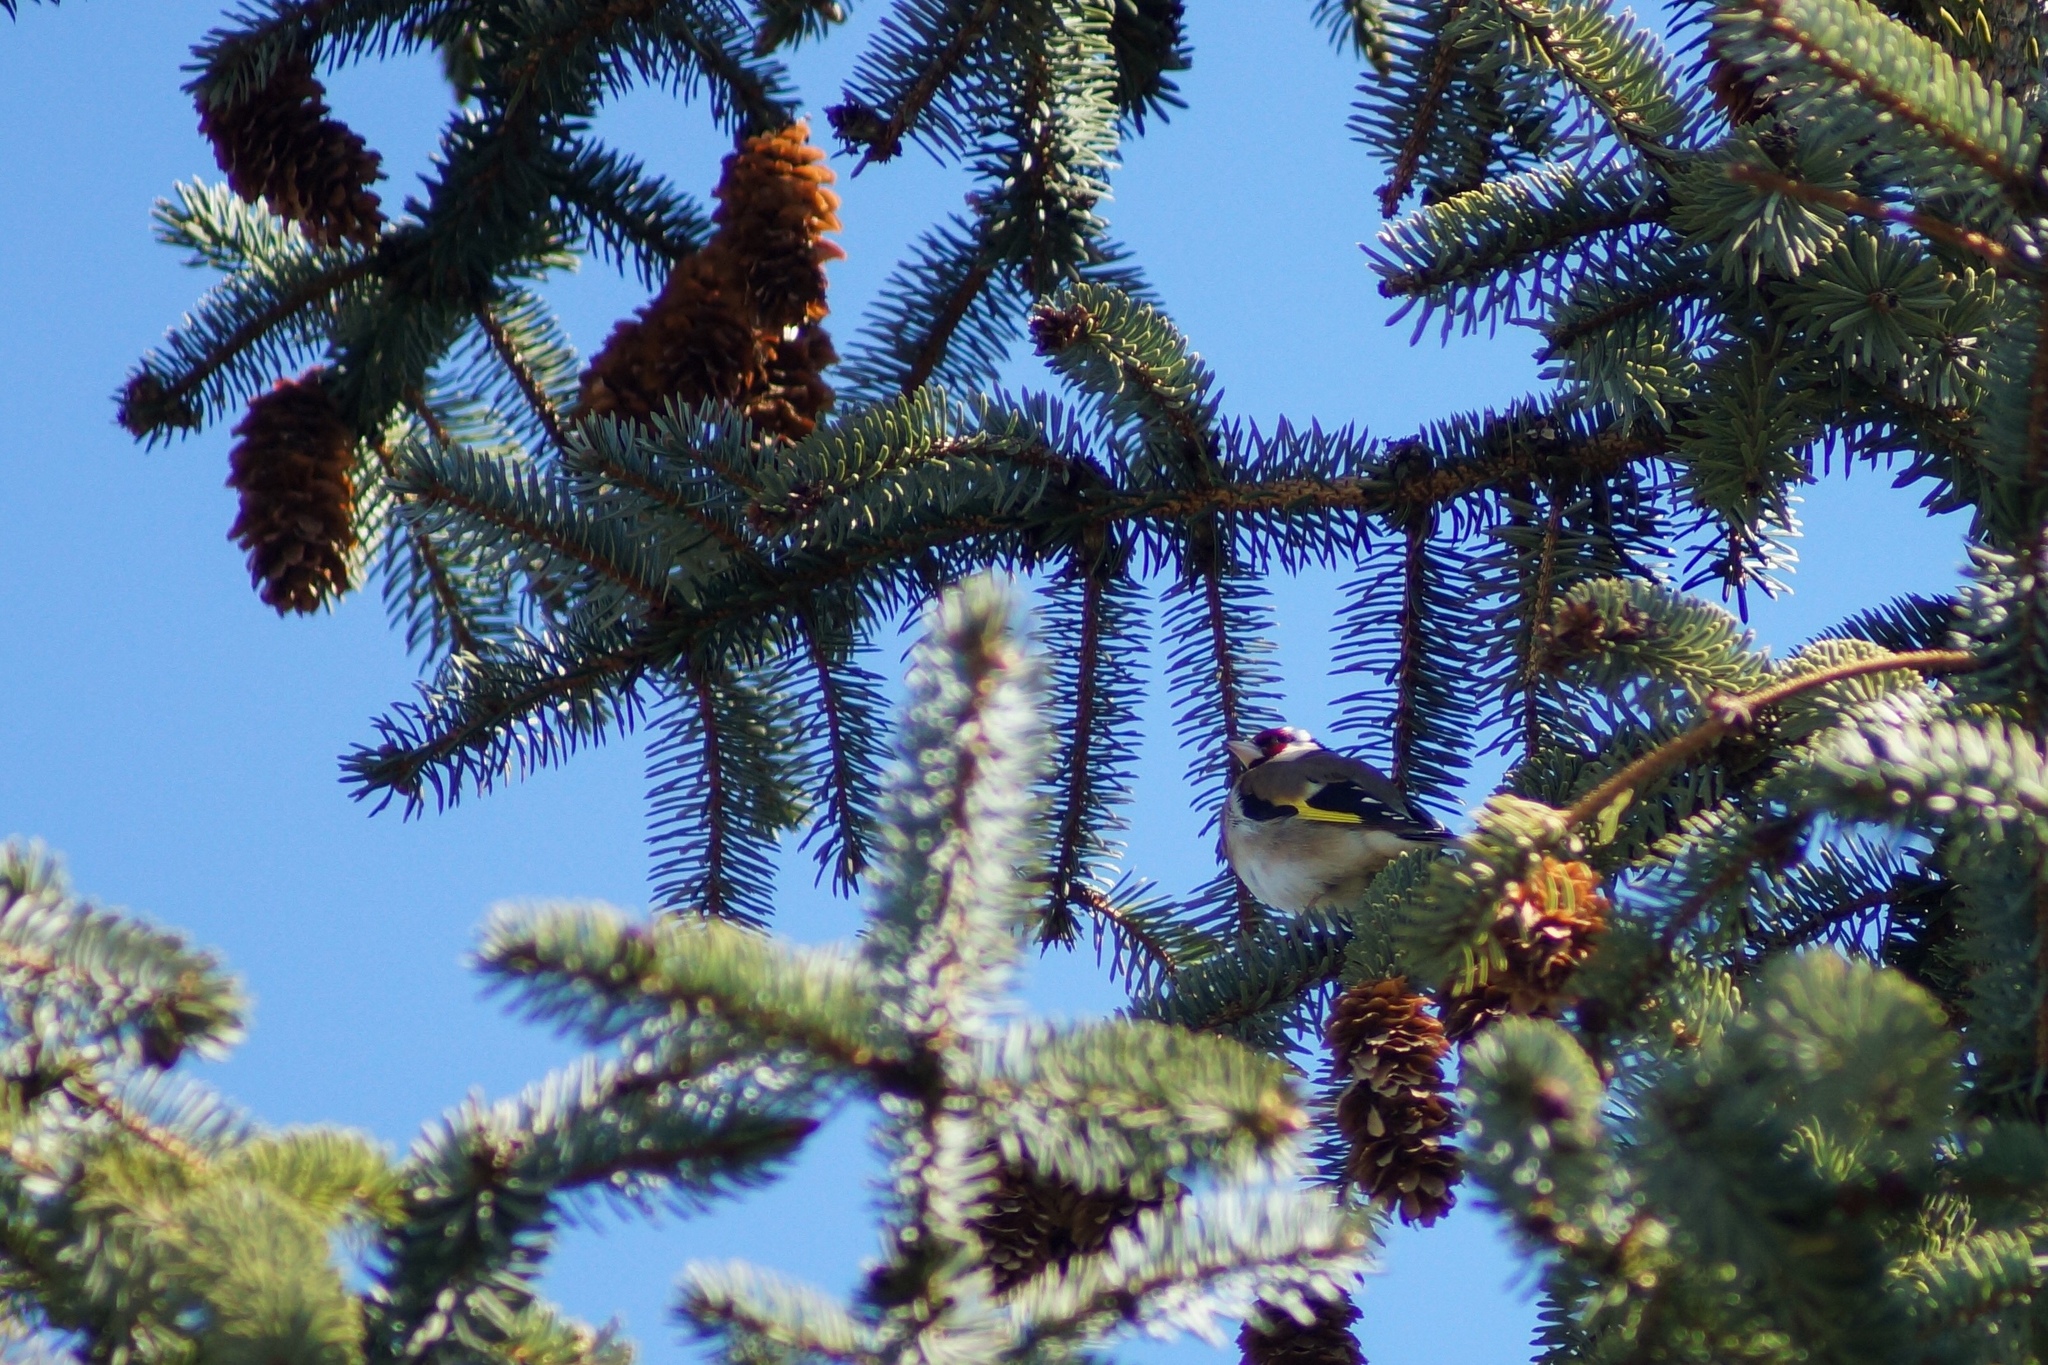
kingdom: Animalia
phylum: Chordata
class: Aves
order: Passeriformes
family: Fringillidae
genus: Carduelis
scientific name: Carduelis carduelis
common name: European goldfinch
